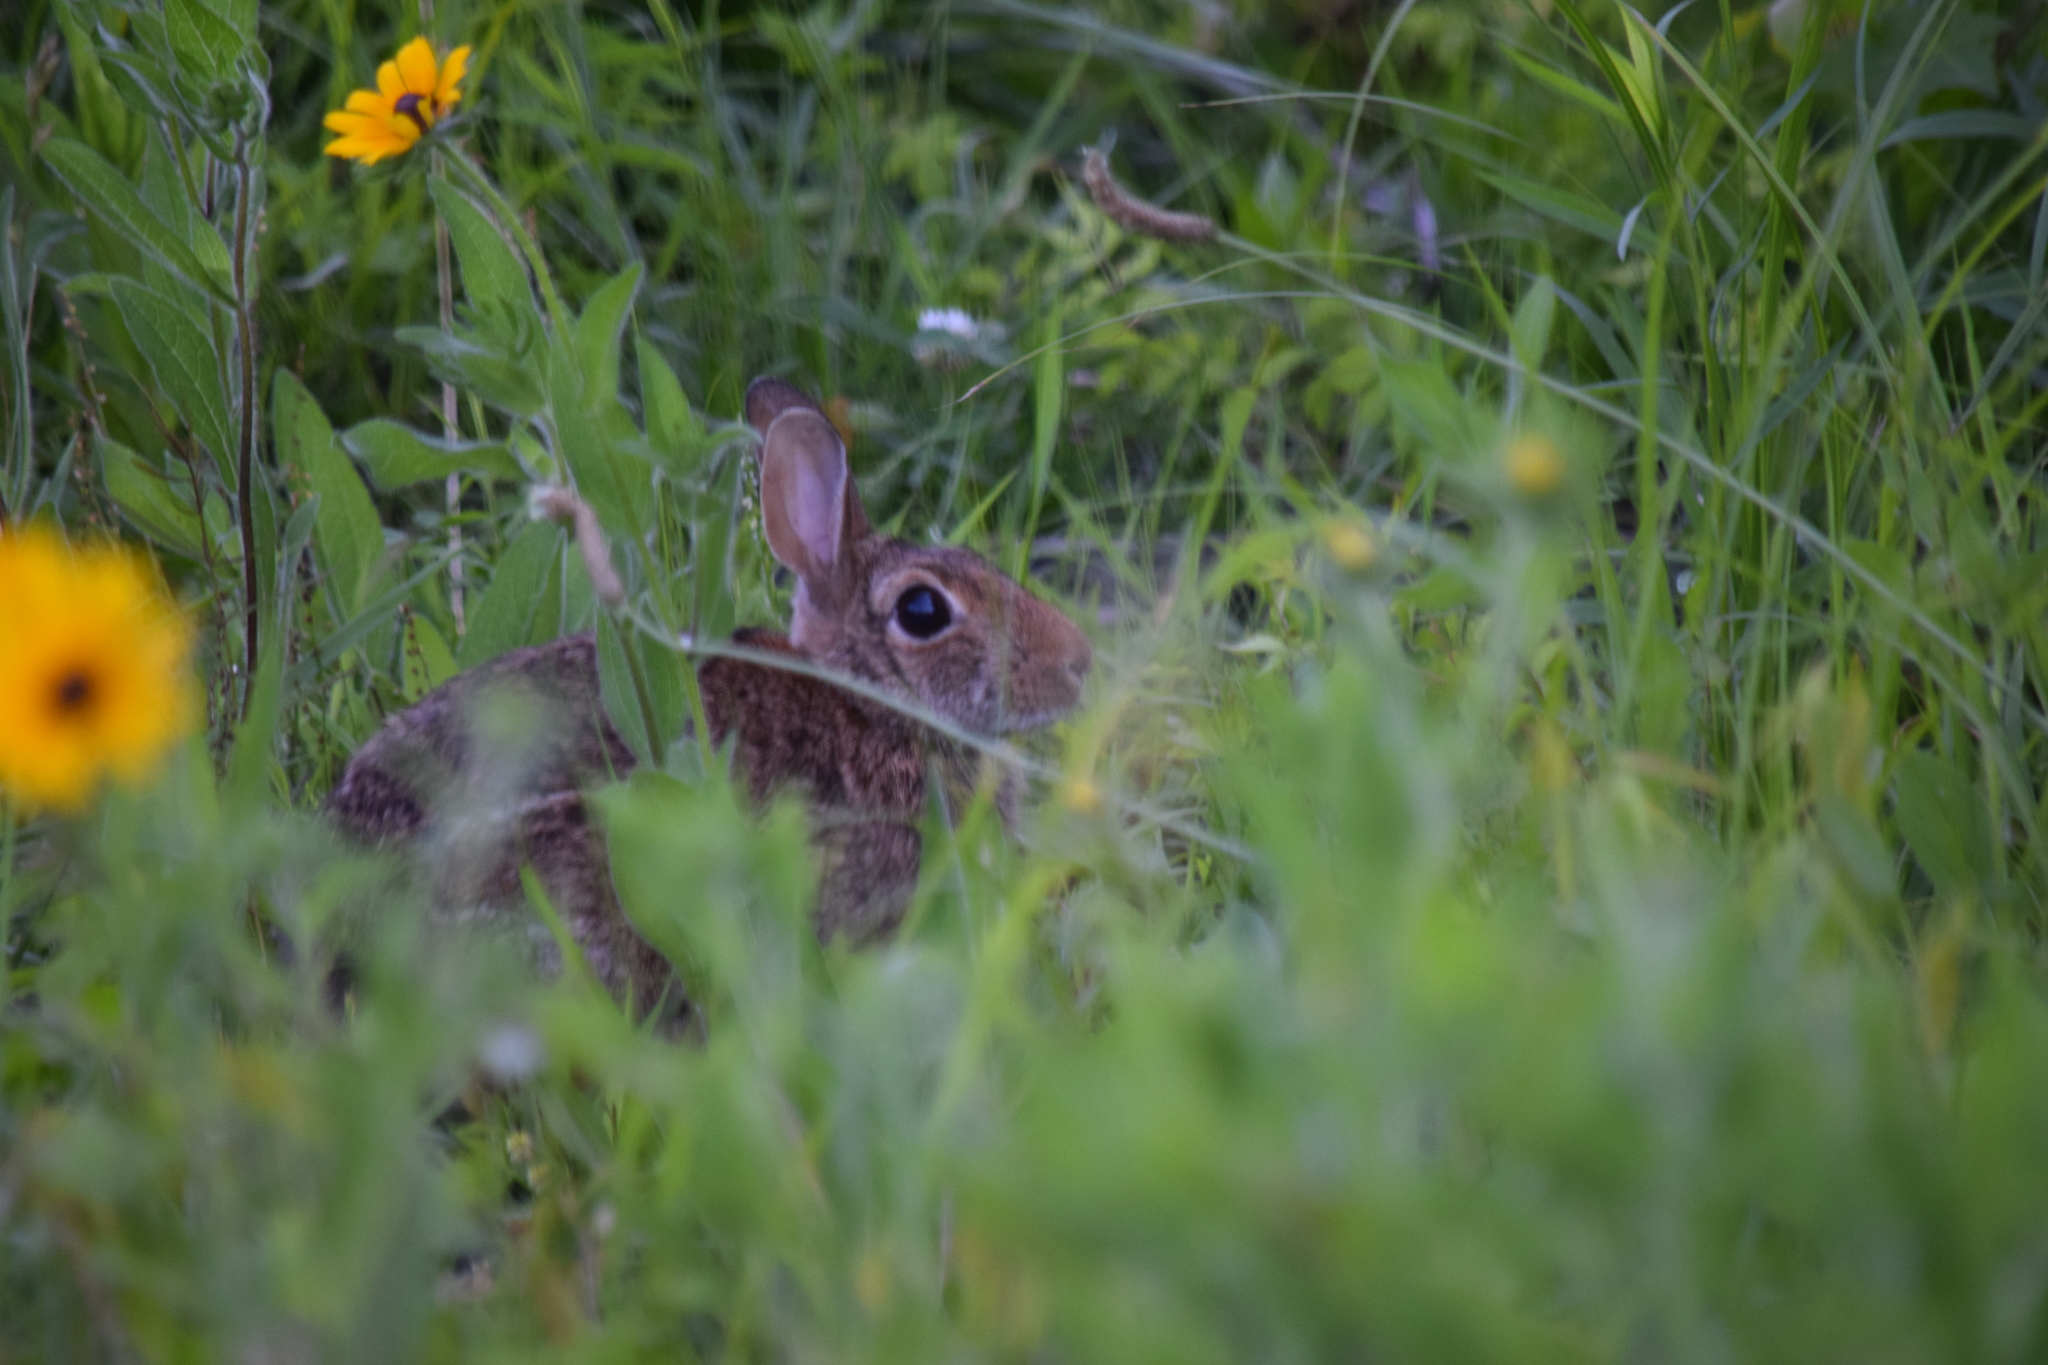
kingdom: Animalia
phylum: Chordata
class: Mammalia
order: Lagomorpha
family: Leporidae
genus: Sylvilagus
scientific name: Sylvilagus floridanus
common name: Eastern cottontail
